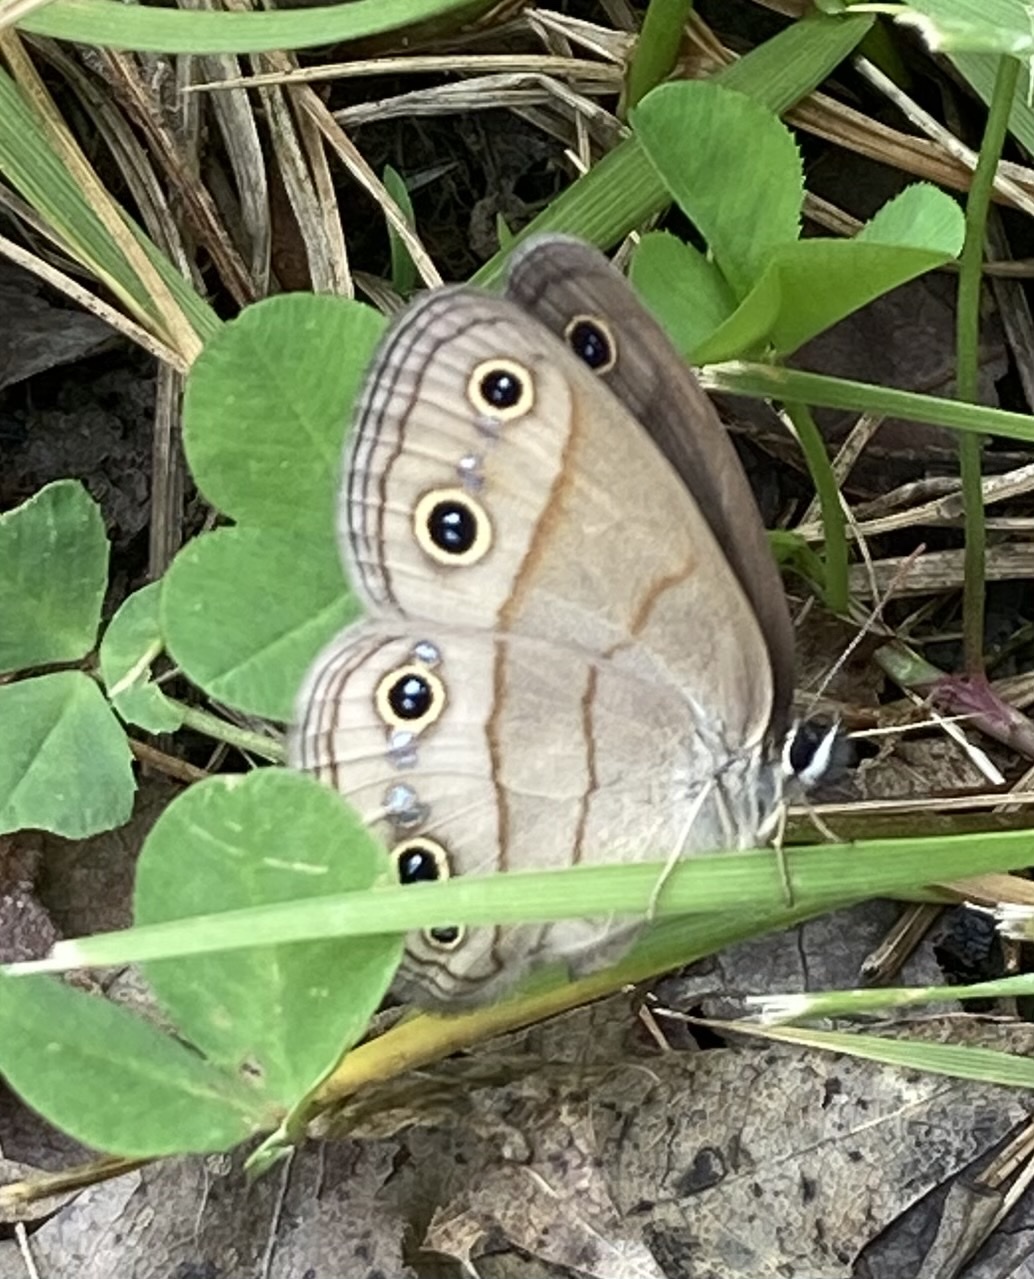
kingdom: Animalia
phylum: Arthropoda
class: Insecta
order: Lepidoptera
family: Nymphalidae
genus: Euptychia
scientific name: Euptychia cymela
